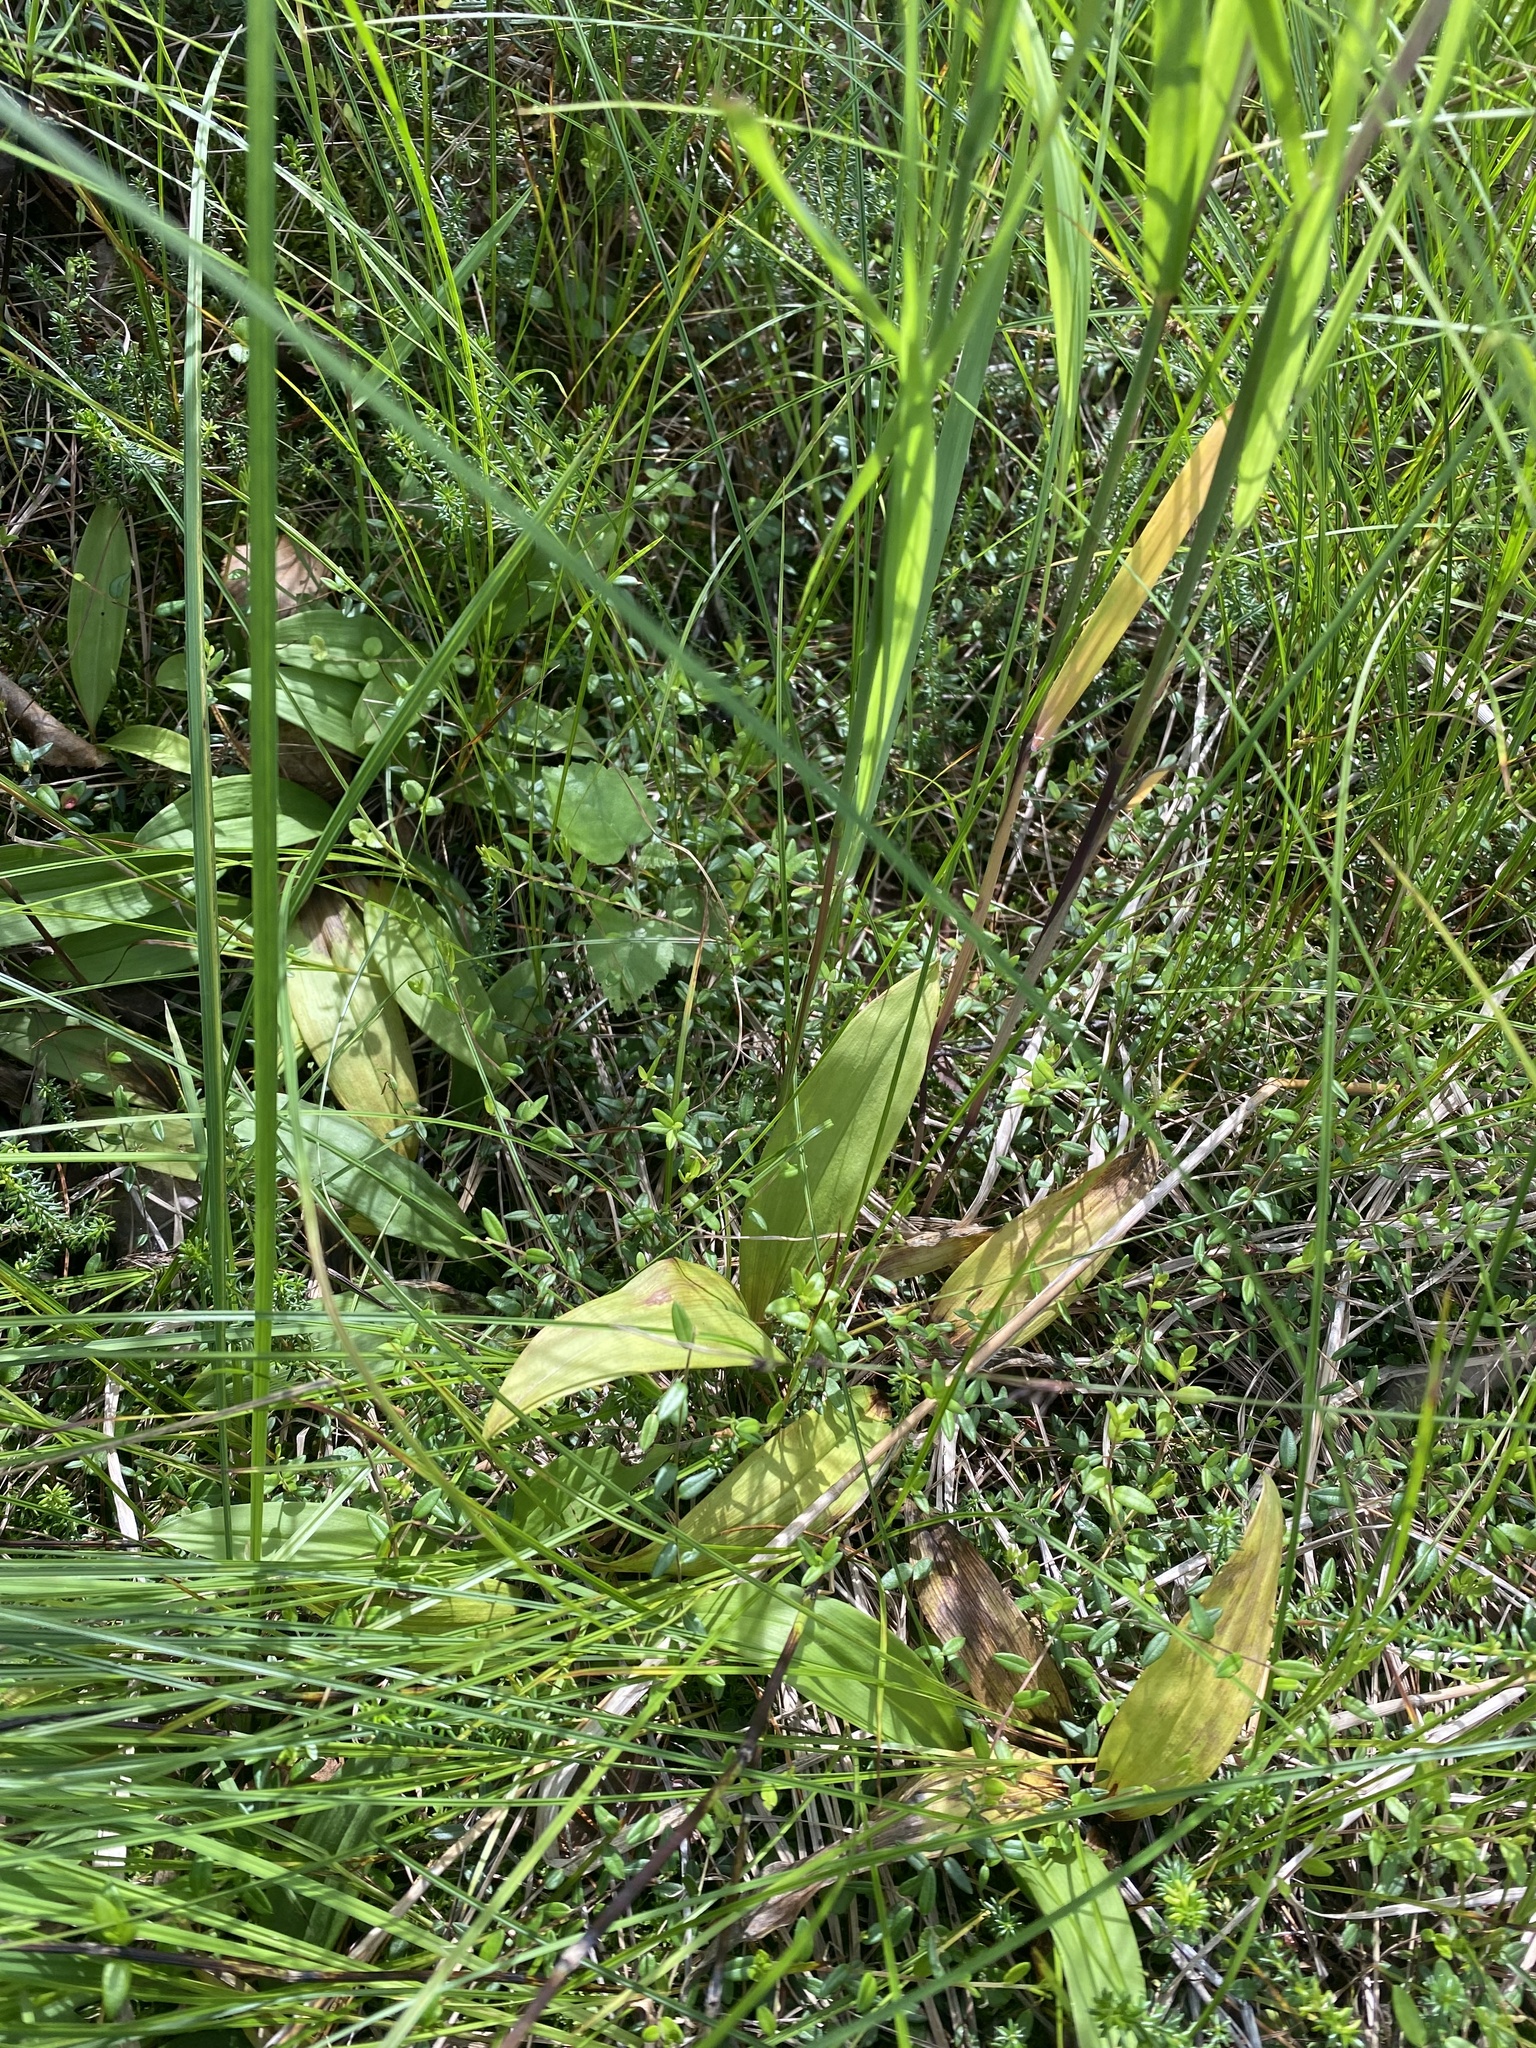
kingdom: Plantae
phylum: Tracheophyta
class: Liliopsida
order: Asparagales
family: Asparagaceae
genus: Maianthemum
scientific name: Maianthemum trifolium
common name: Swamp false solomon's seal
